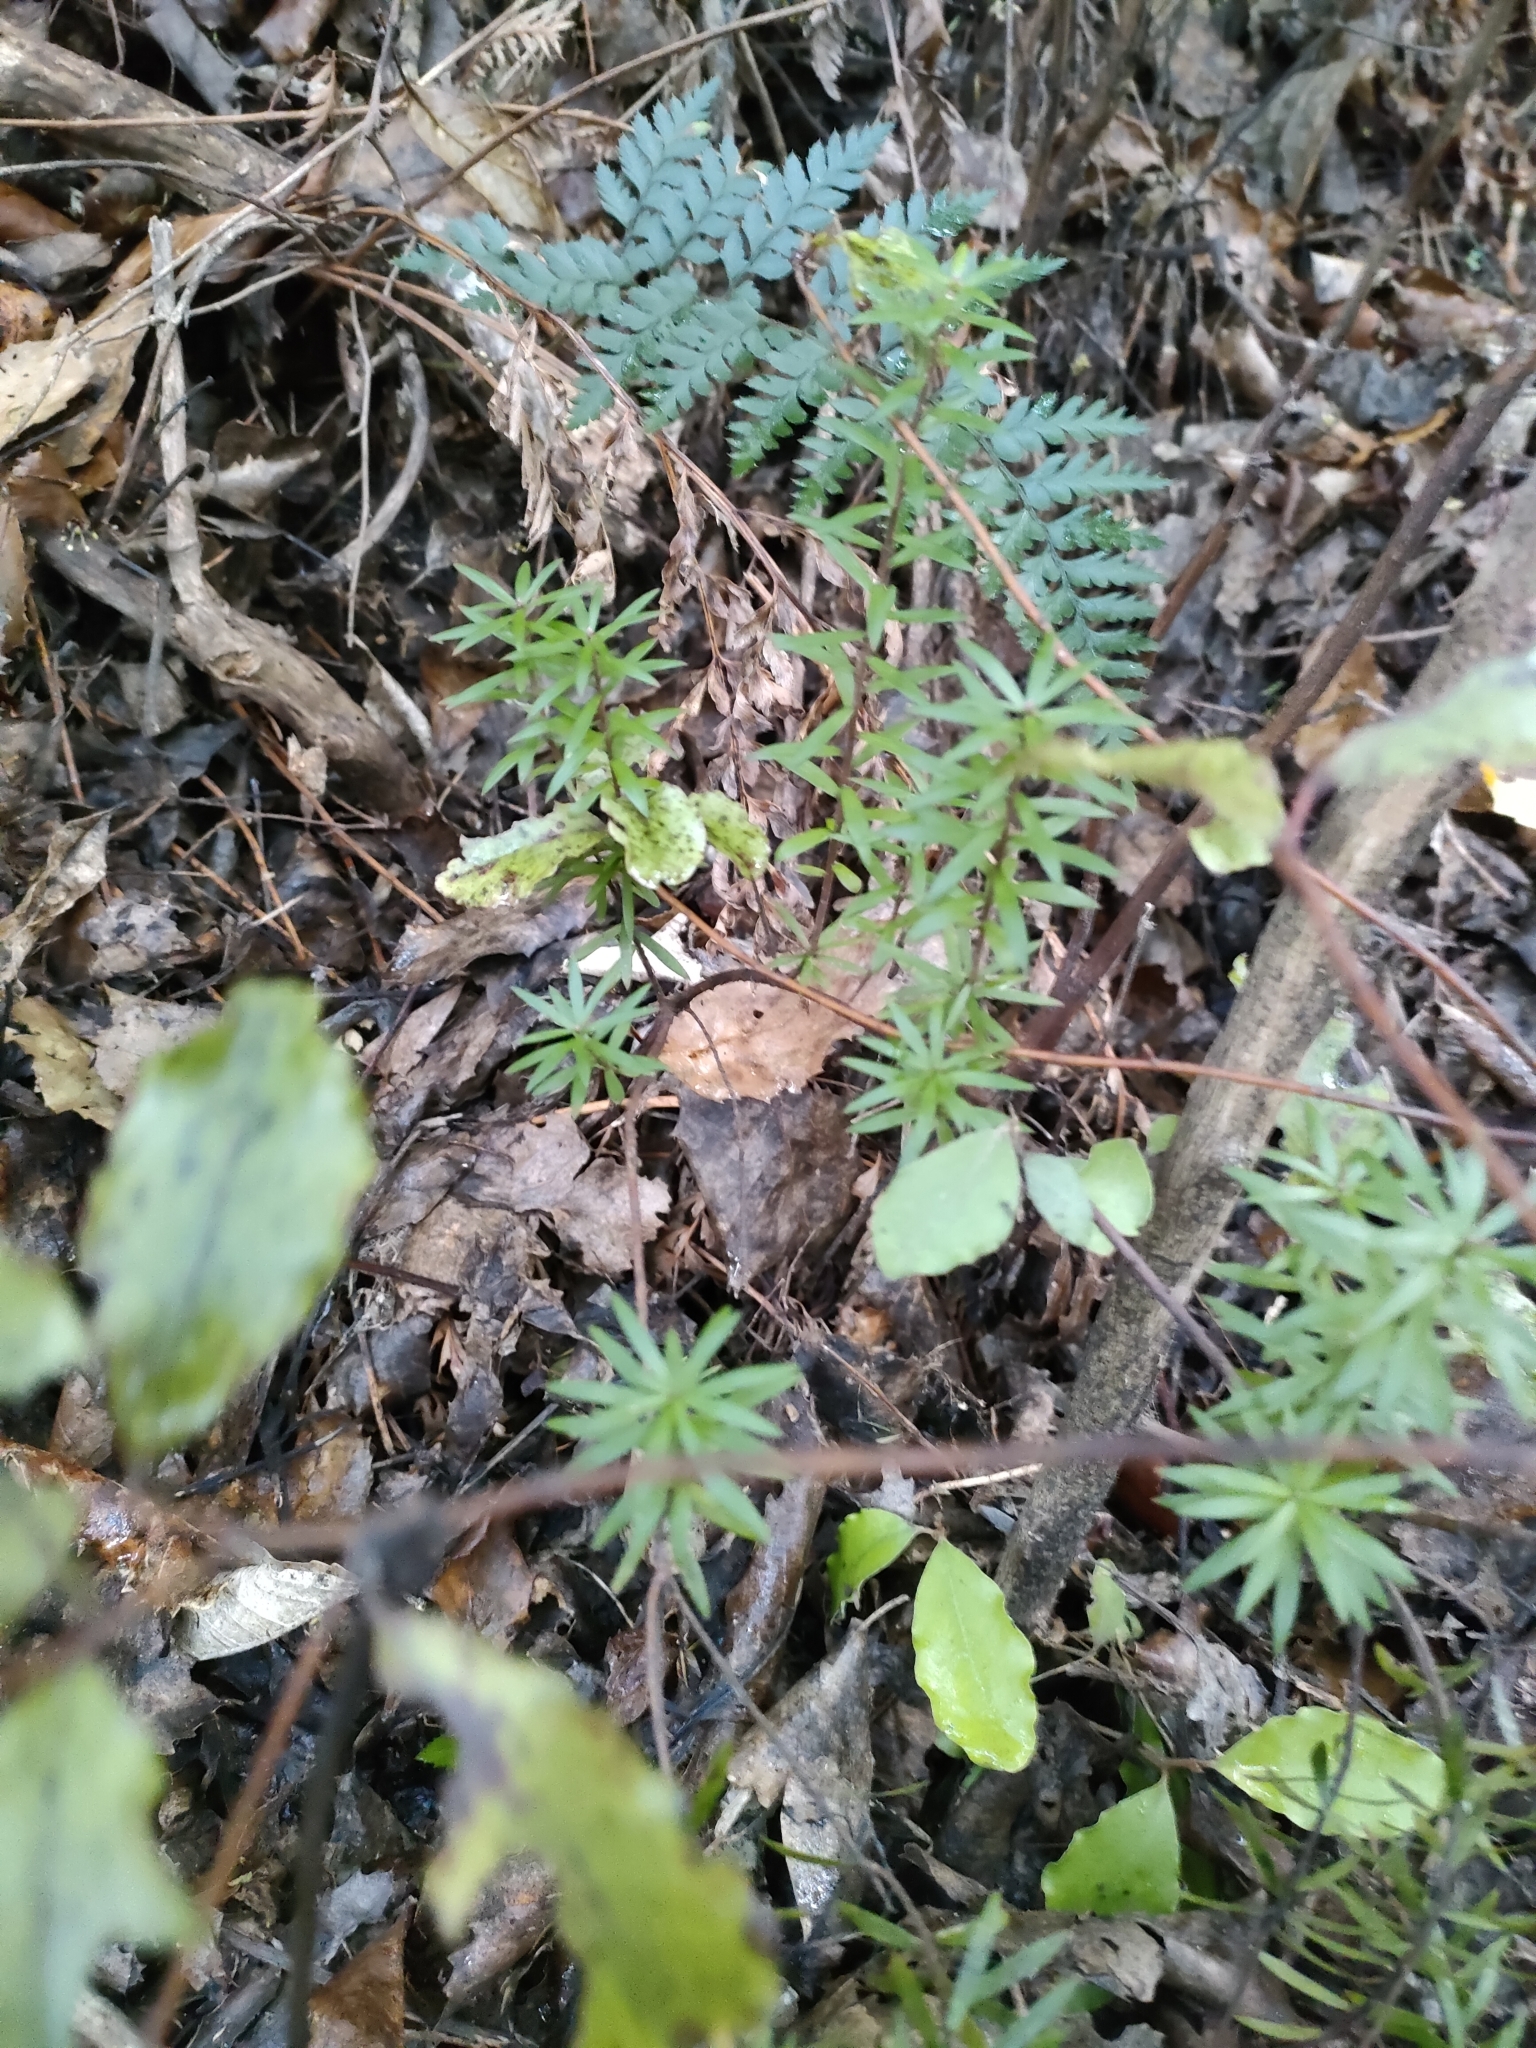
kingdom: Plantae
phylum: Tracheophyta
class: Magnoliopsida
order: Ericales
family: Ericaceae
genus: Leucopogon
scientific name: Leucopogon fasciculatus
